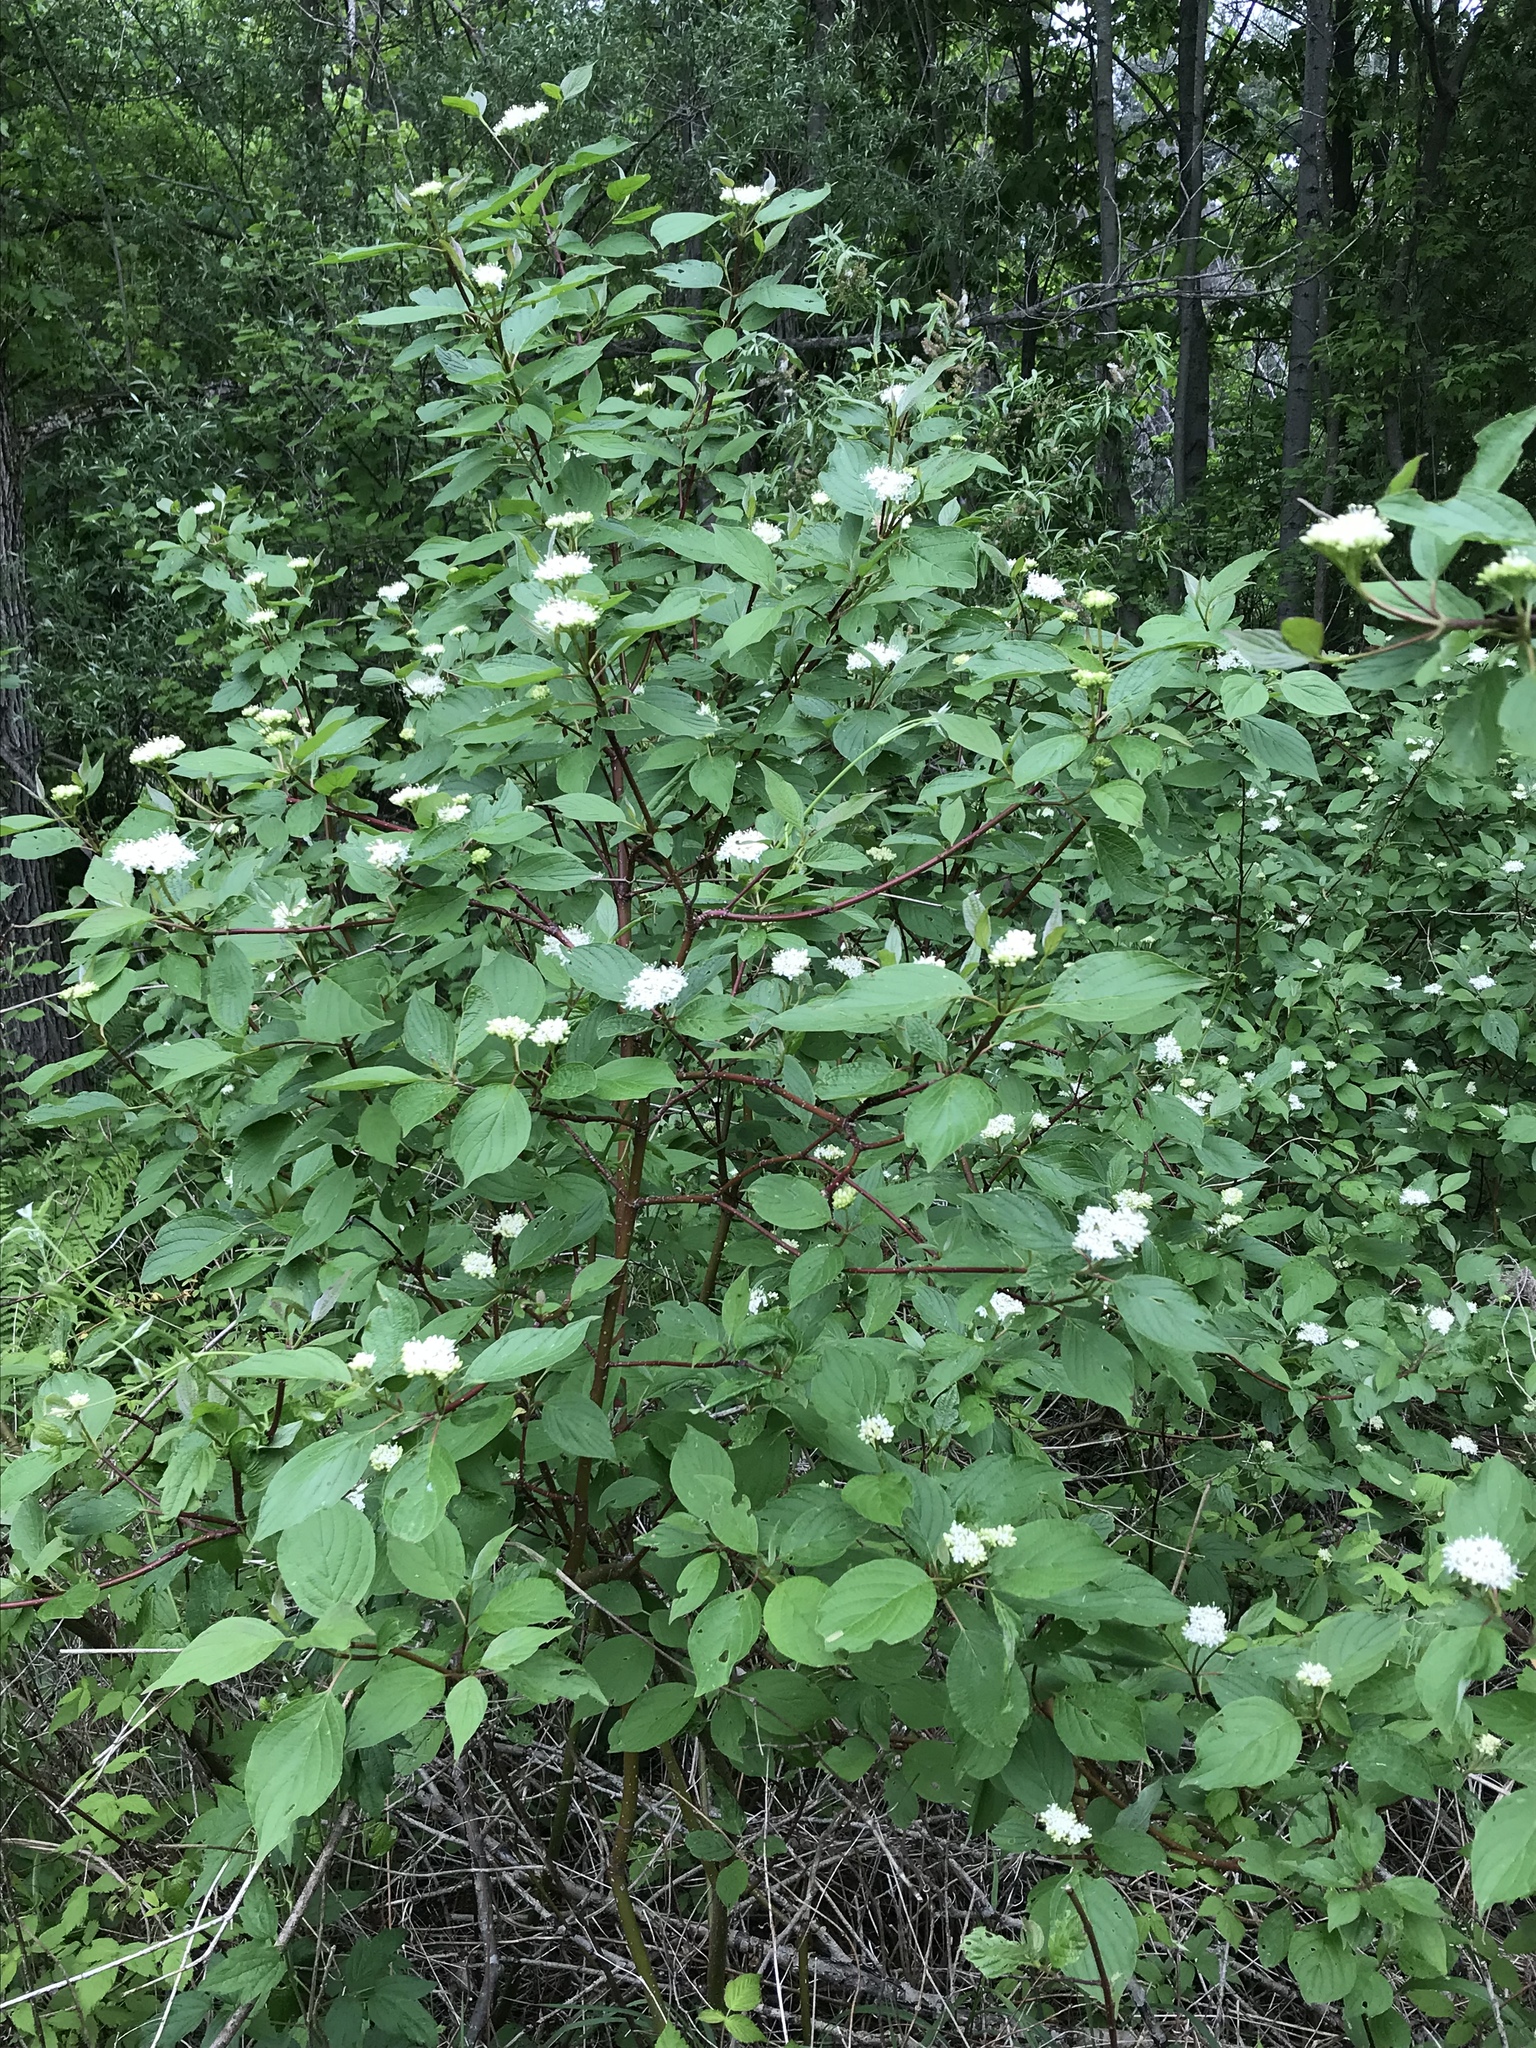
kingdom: Plantae
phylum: Tracheophyta
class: Magnoliopsida
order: Cornales
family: Cornaceae
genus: Cornus
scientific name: Cornus sericea
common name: Red-osier dogwood
